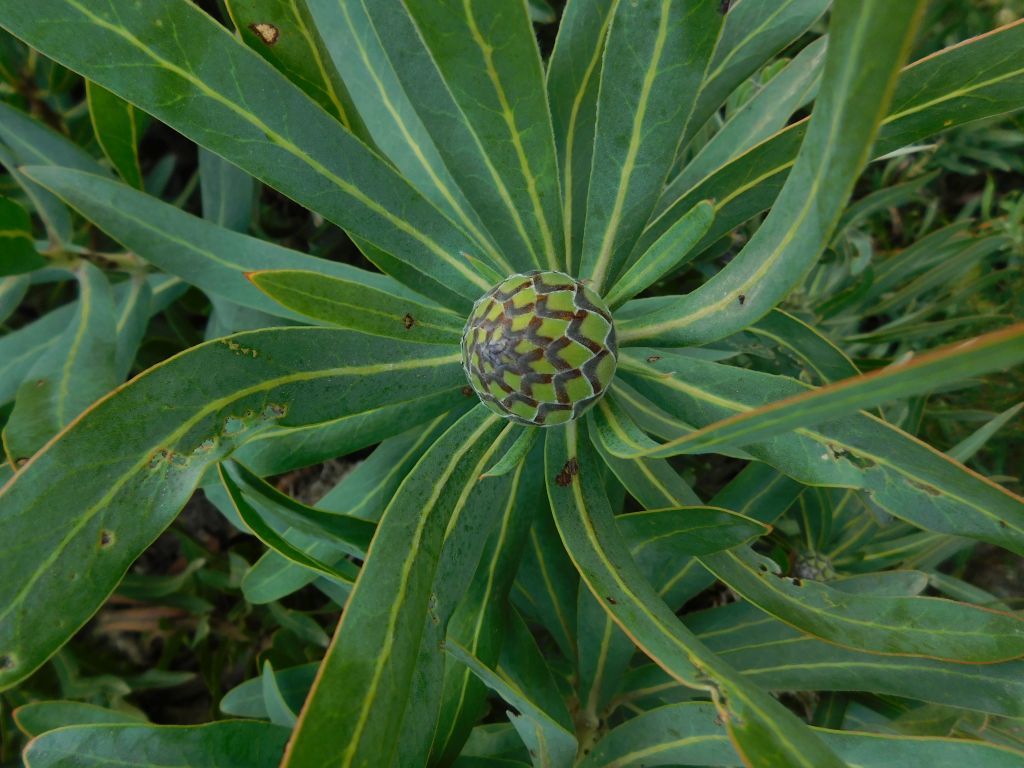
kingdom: Plantae
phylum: Tracheophyta
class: Magnoliopsida
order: Proteales
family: Proteaceae
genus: Protea
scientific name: Protea neriifolia
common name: Blue sugarbush
